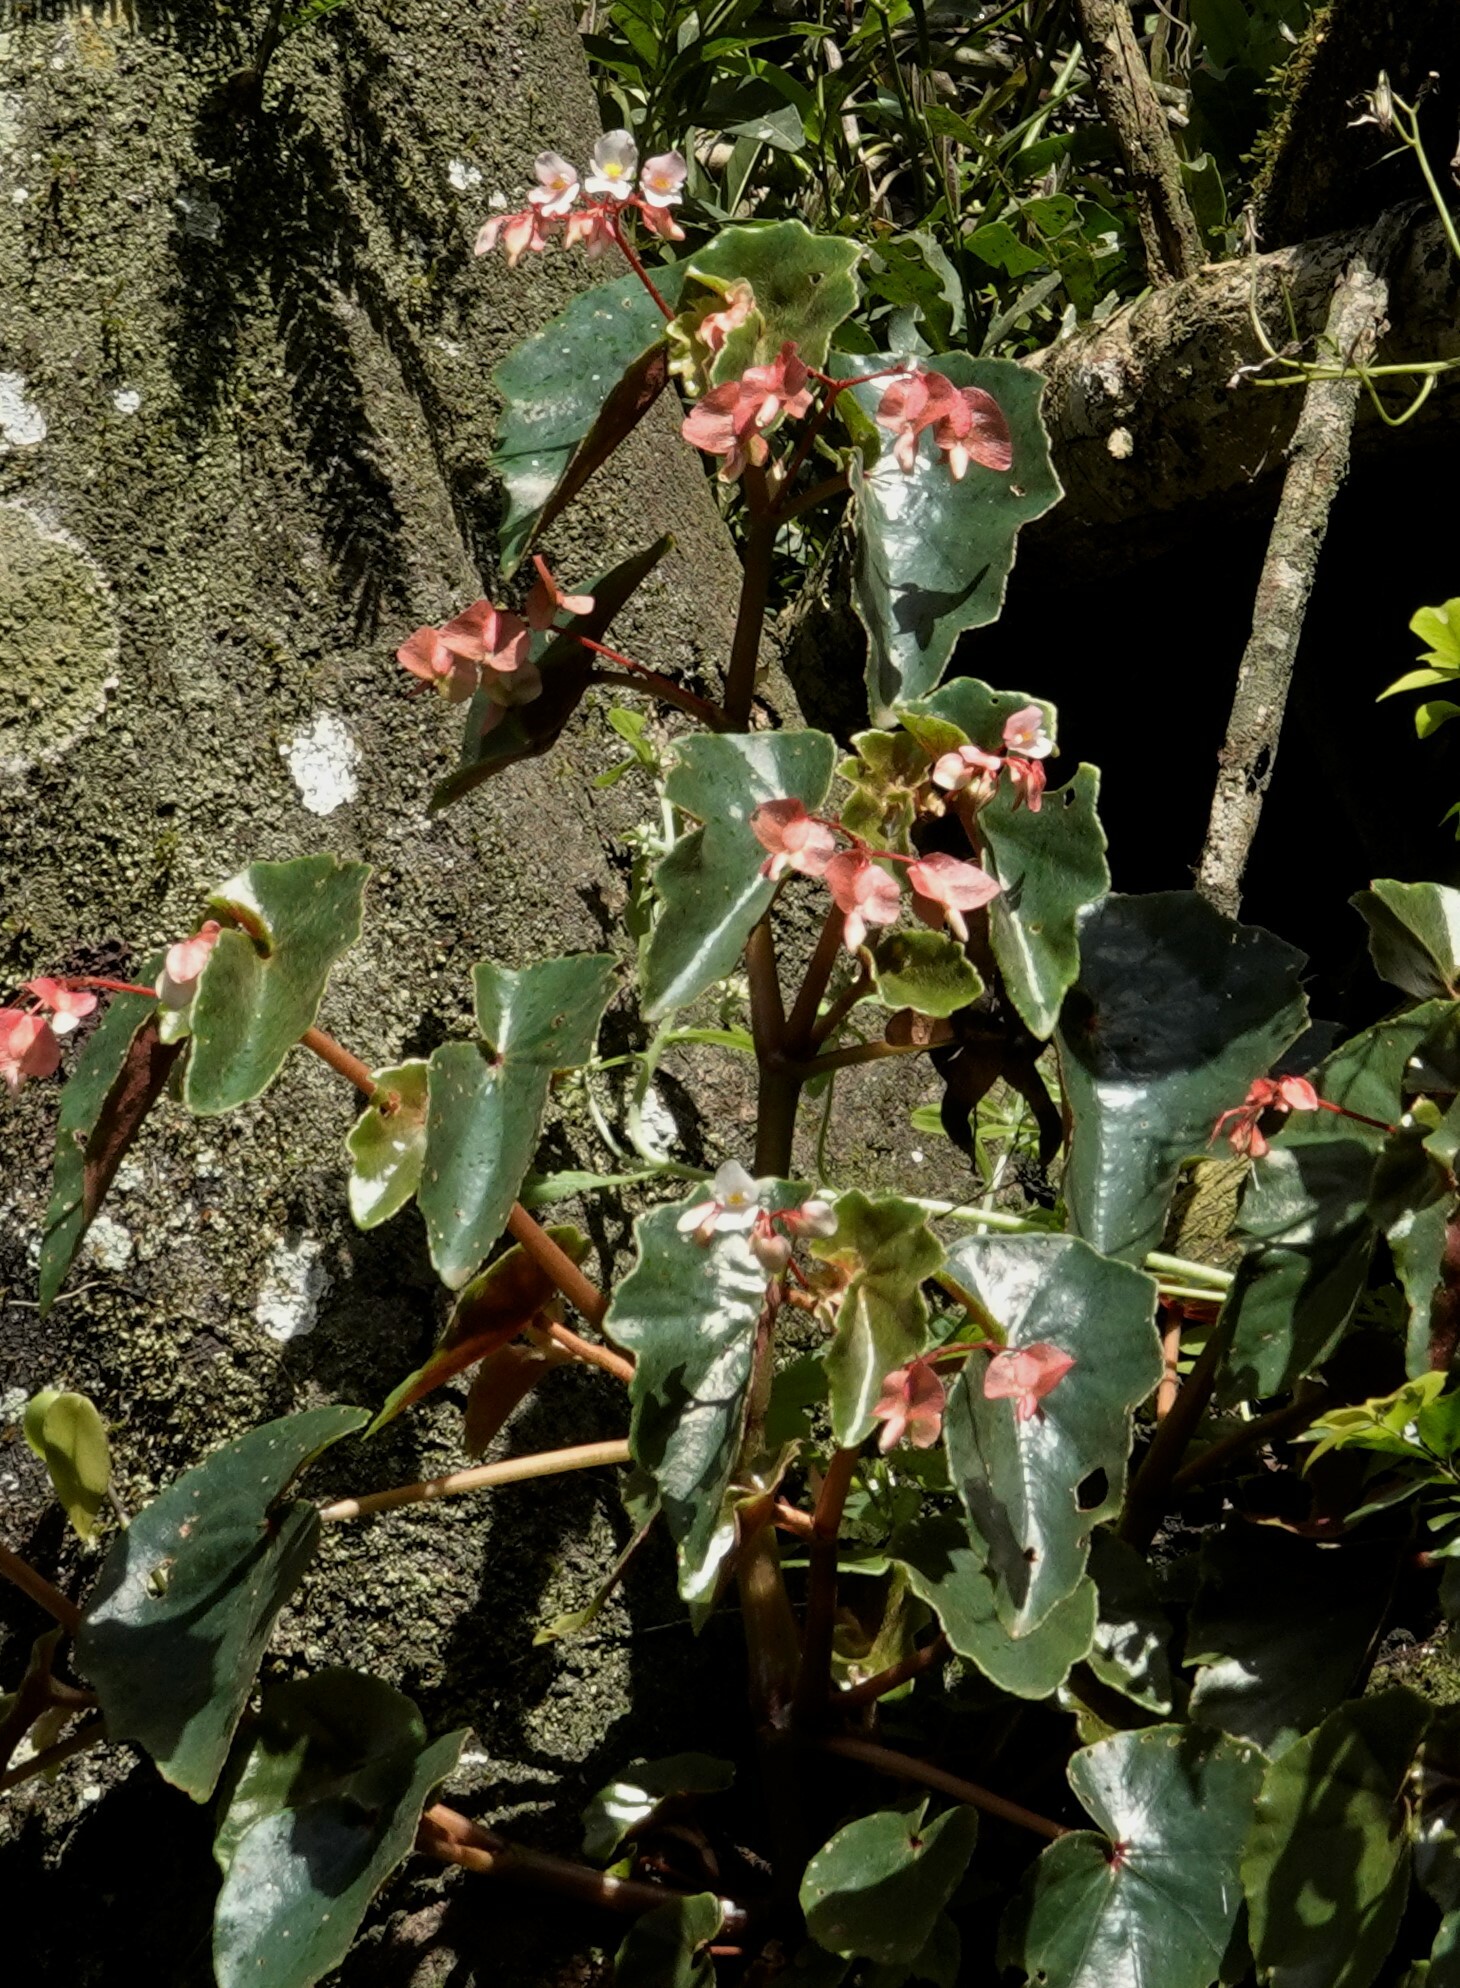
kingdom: Plantae
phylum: Tracheophyta
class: Magnoliopsida
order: Cucurbitales
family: Begoniaceae
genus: Begonia
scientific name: Begonia subvillosa
